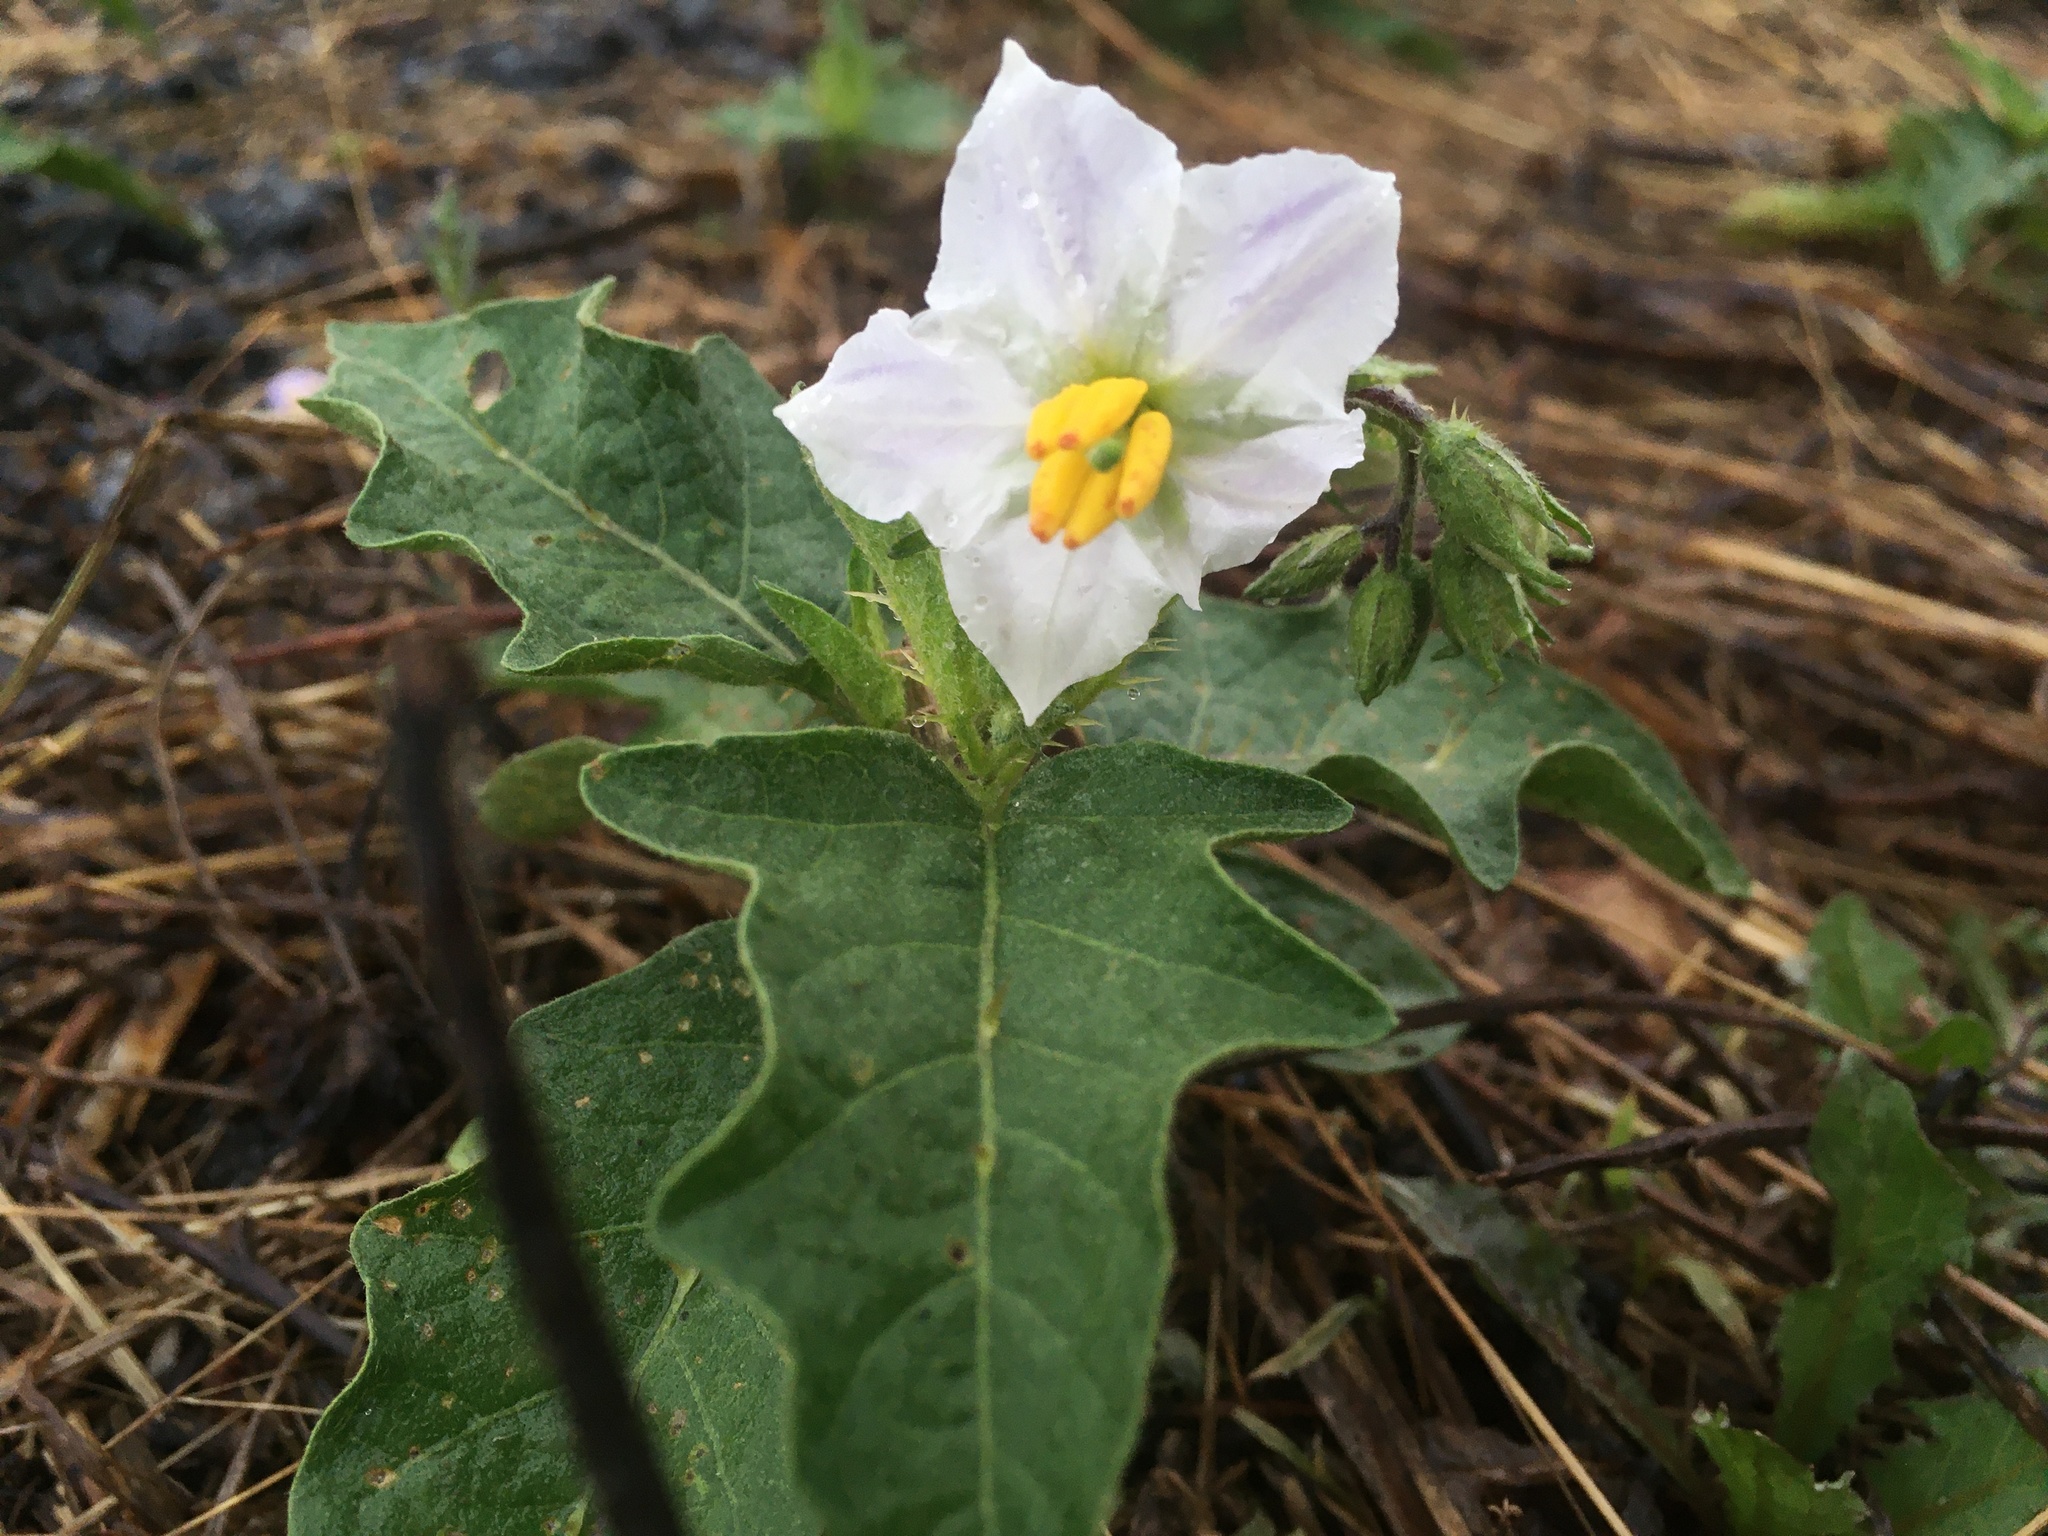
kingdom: Plantae
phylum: Tracheophyta
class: Magnoliopsida
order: Solanales
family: Solanaceae
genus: Solanum
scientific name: Solanum carolinense
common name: Horse-nettle
